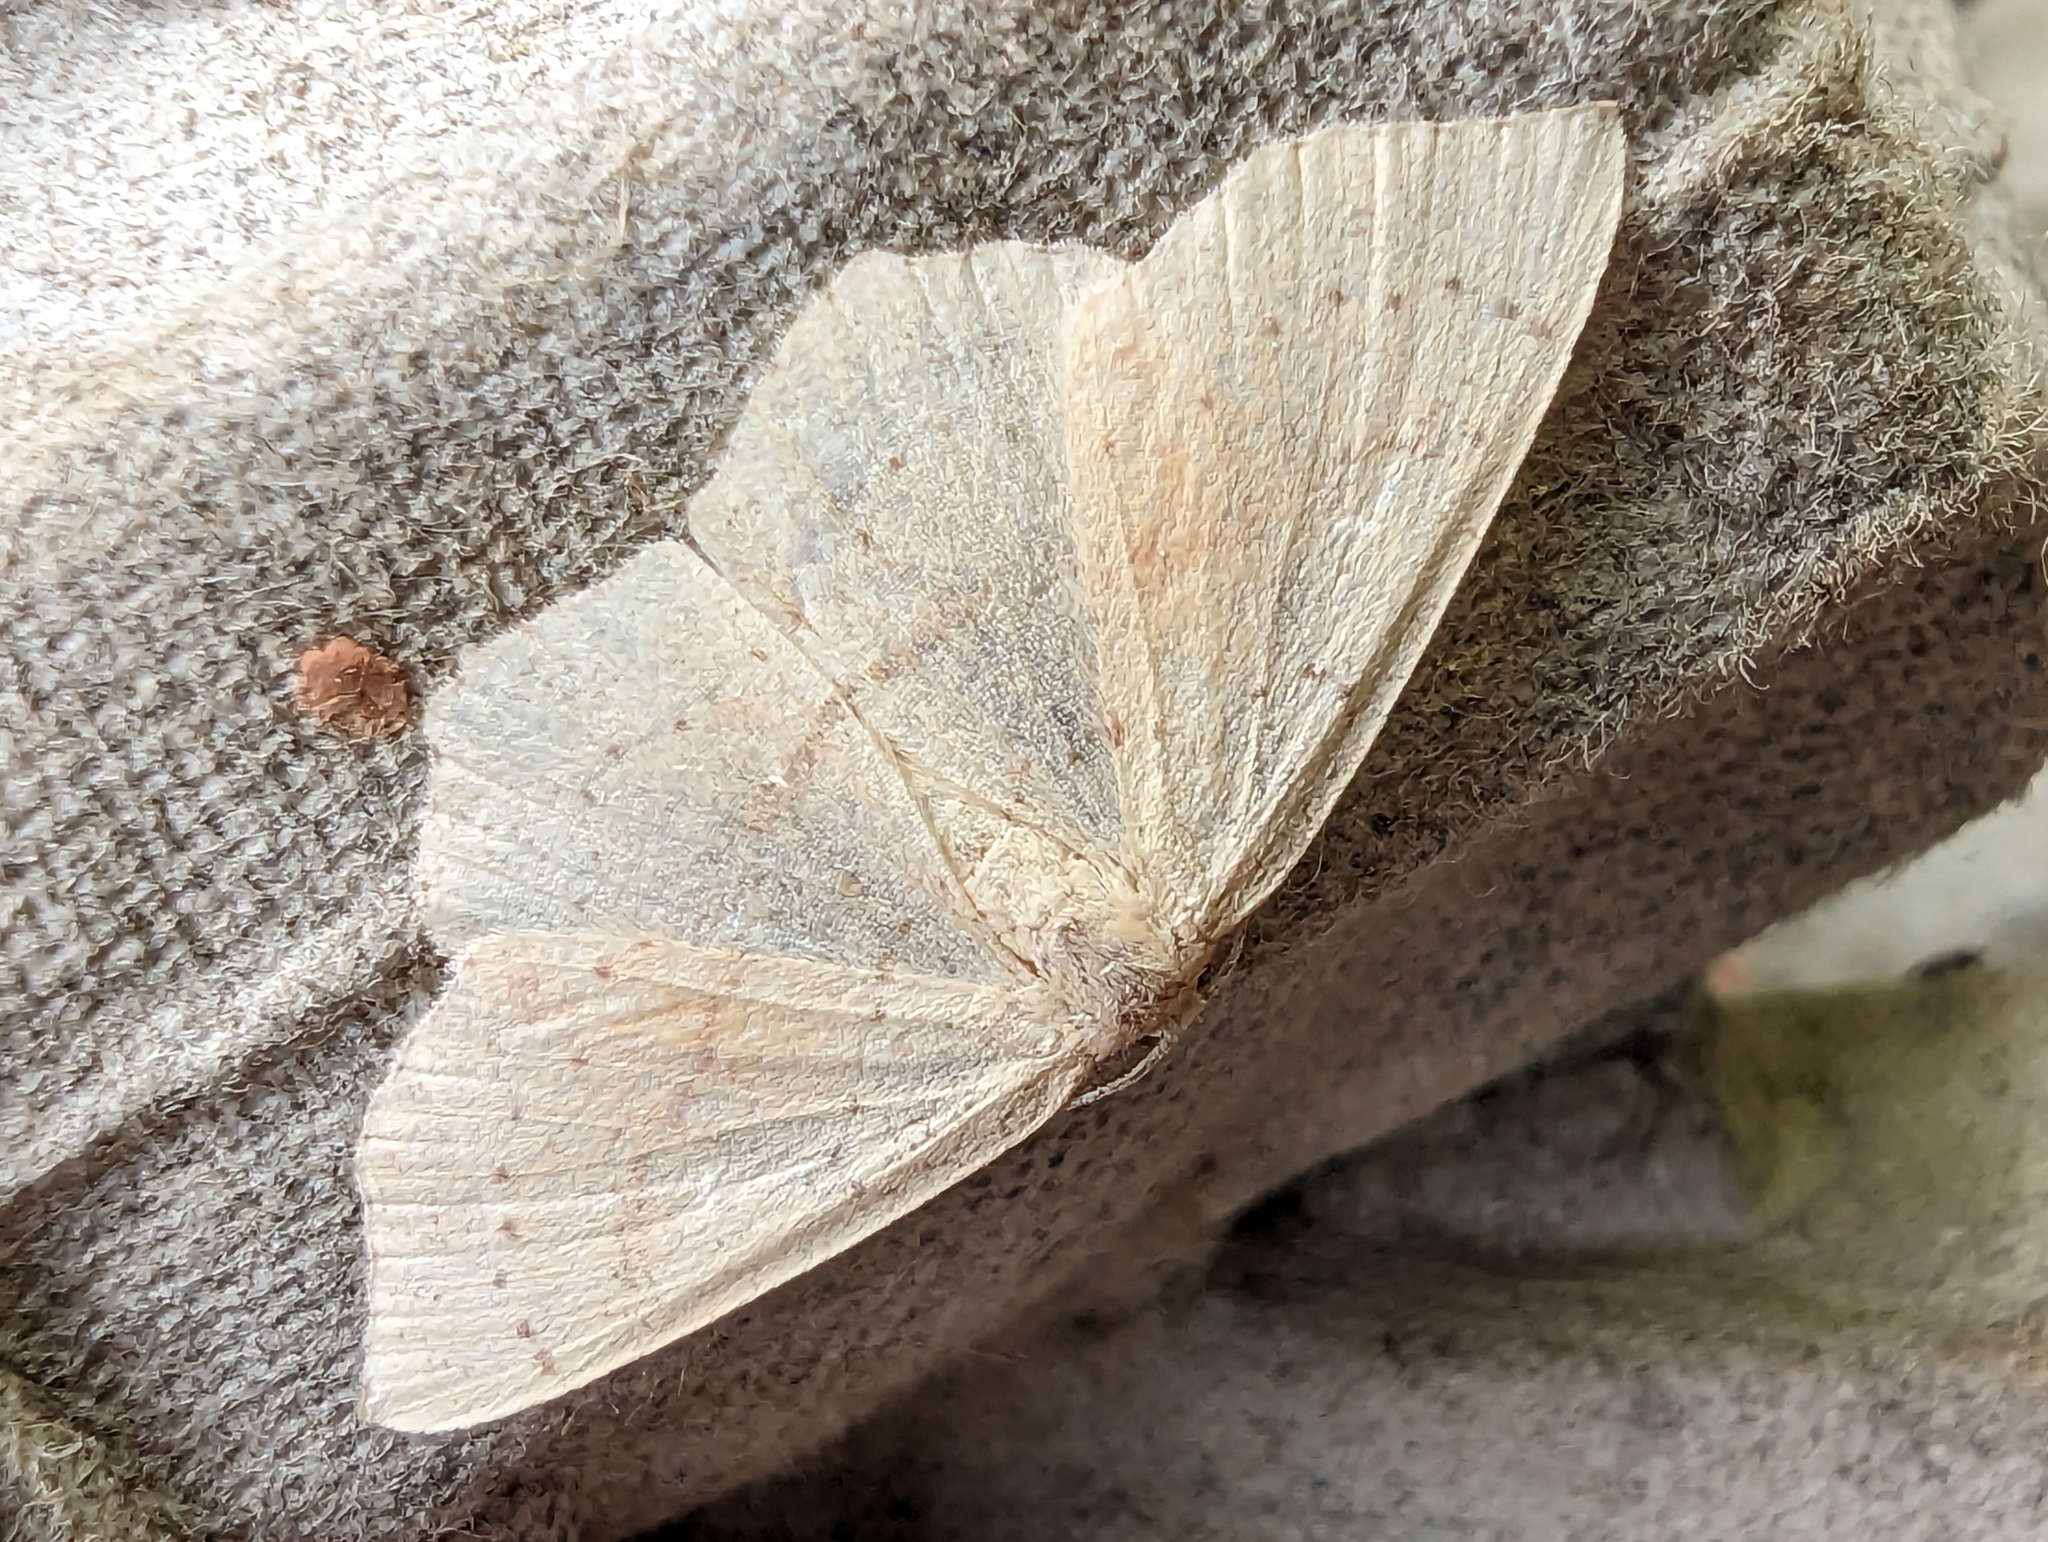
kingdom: Animalia
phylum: Arthropoda
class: Insecta
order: Lepidoptera
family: Geometridae
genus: Cyclophora
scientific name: Cyclophora punctaria
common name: Maiden's blush
